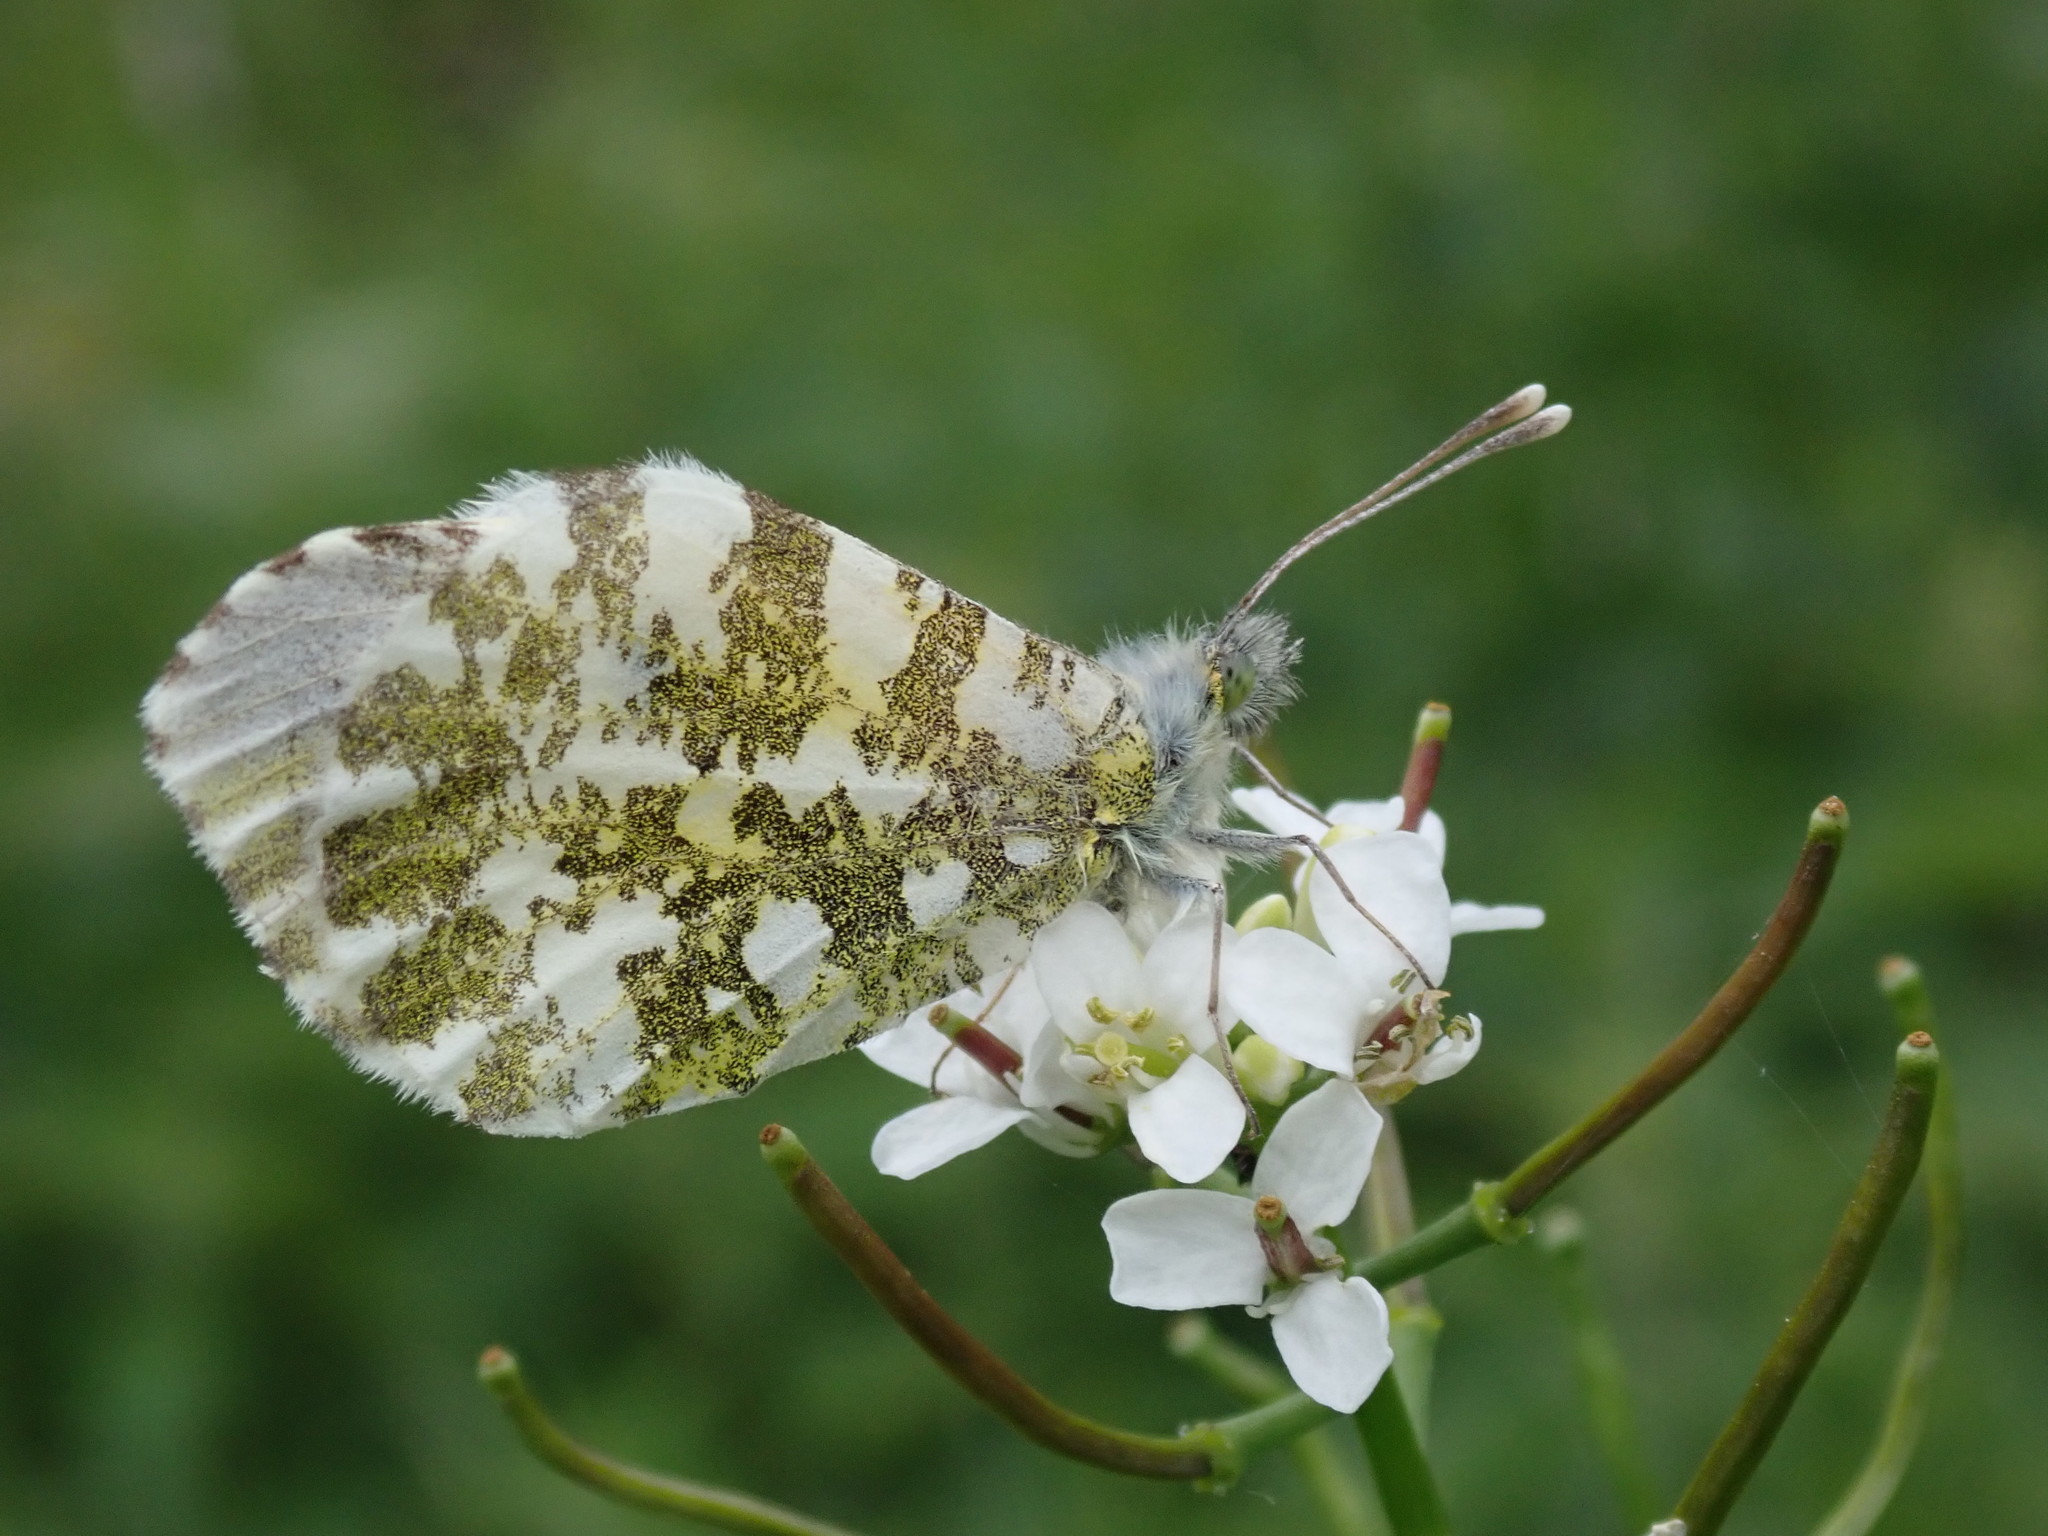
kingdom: Animalia
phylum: Arthropoda
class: Insecta
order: Lepidoptera
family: Pieridae
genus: Anthocharis
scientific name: Anthocharis cardamines
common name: Orange-tip
